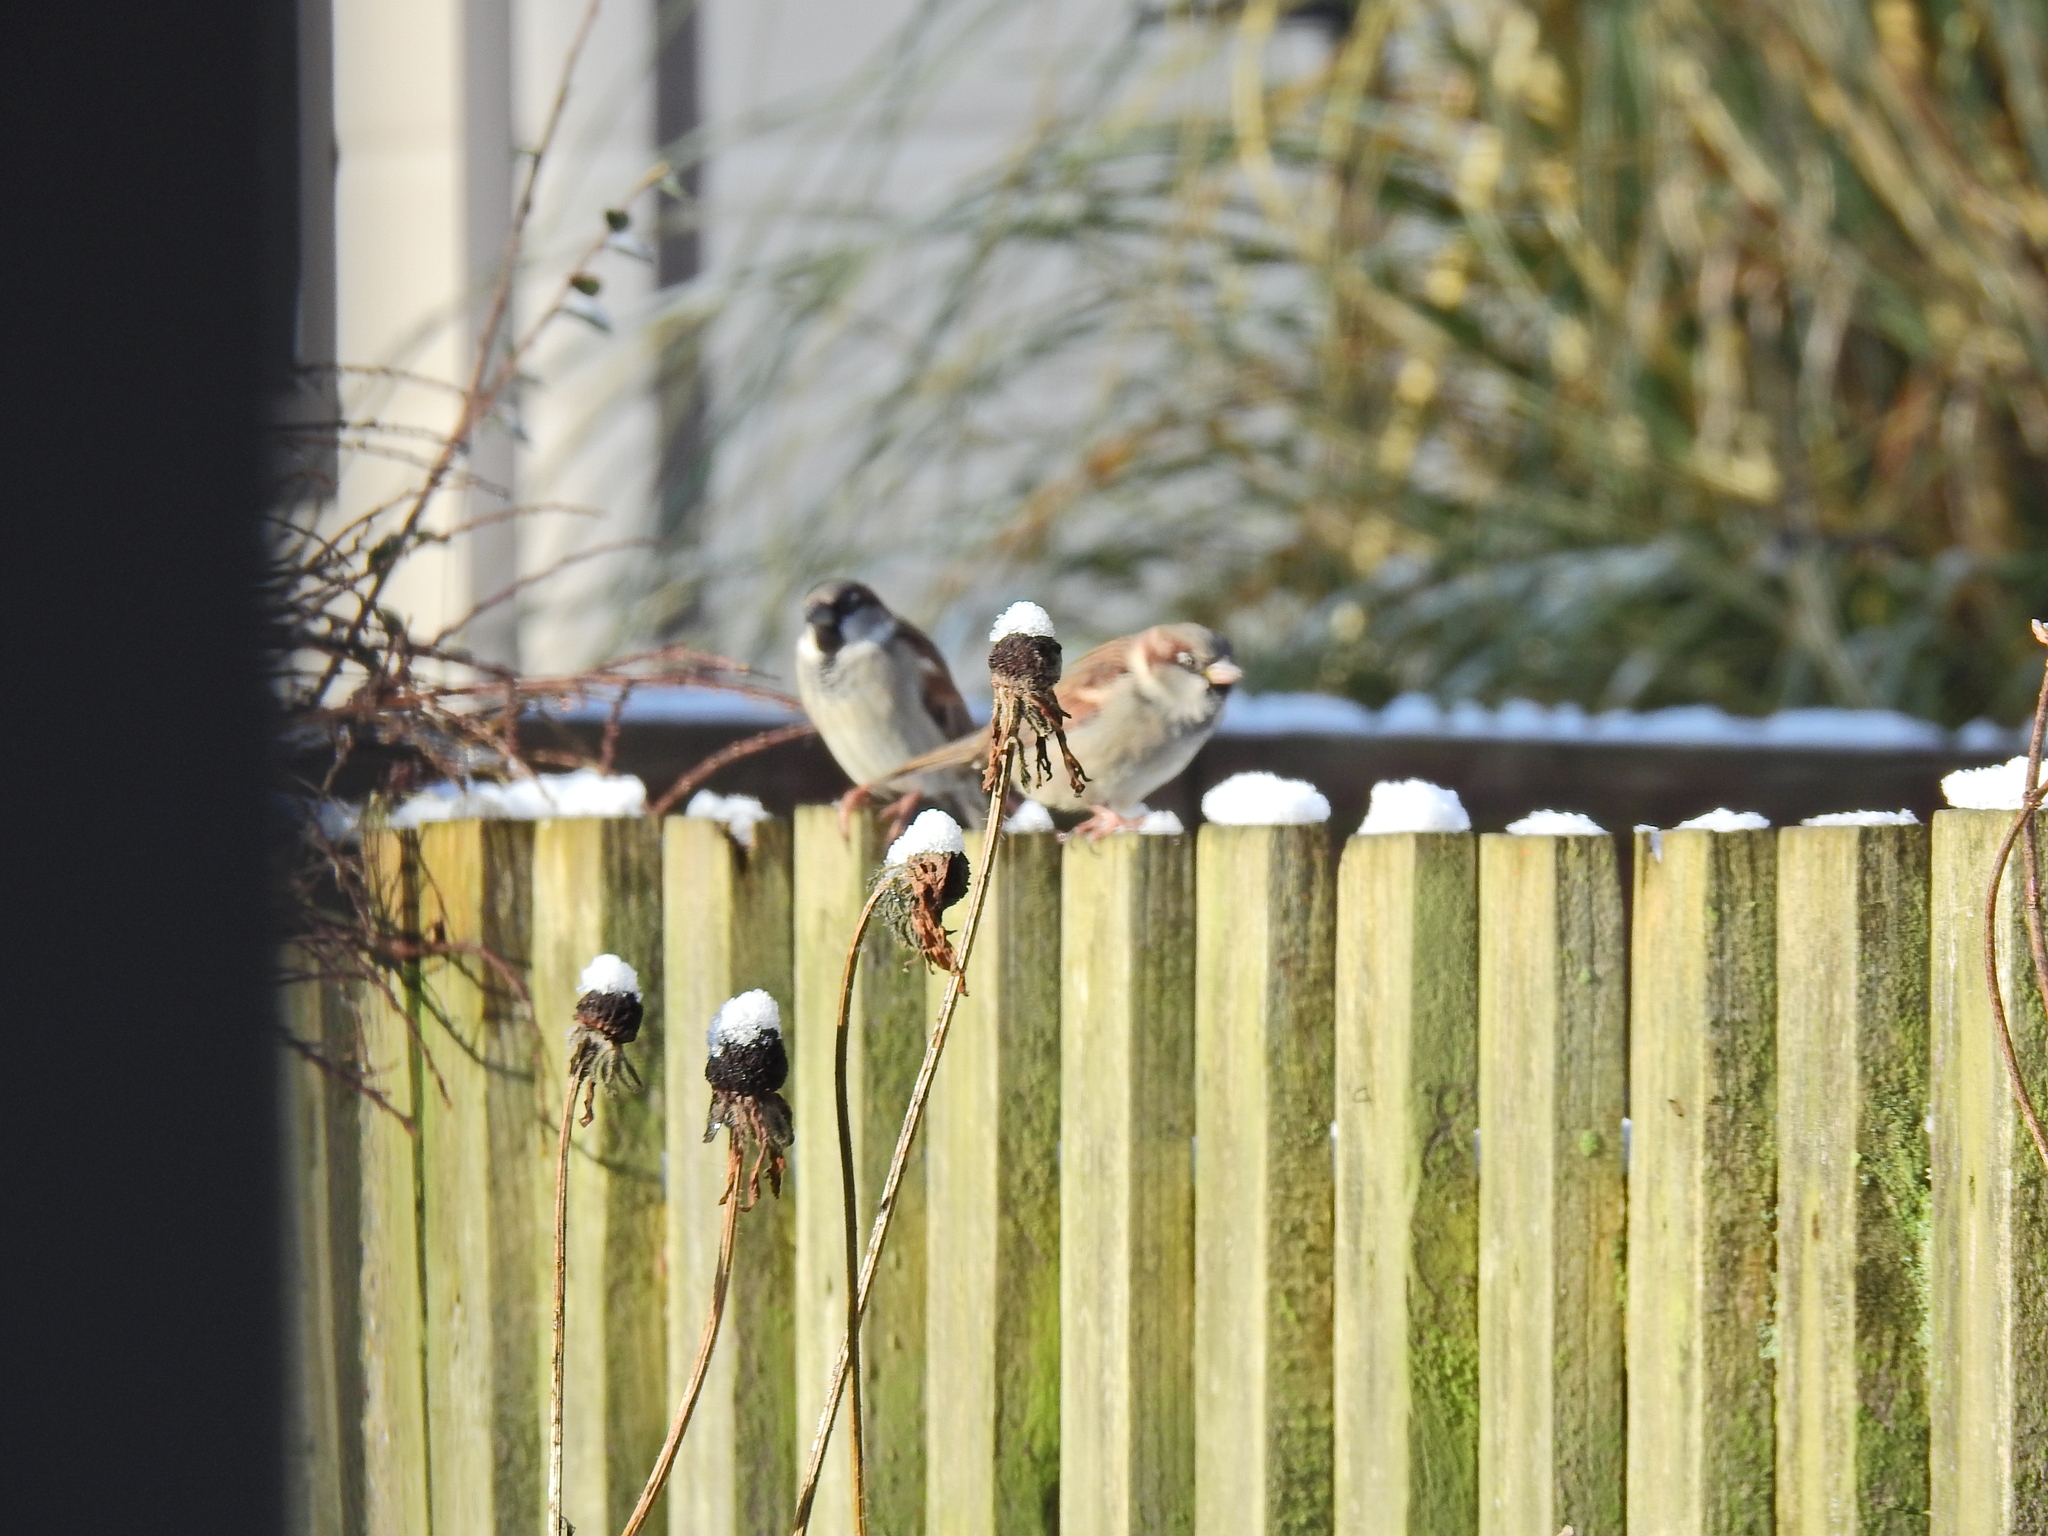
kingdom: Animalia
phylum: Chordata
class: Aves
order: Passeriformes
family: Passeridae
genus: Passer
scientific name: Passer domesticus
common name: House sparrow
